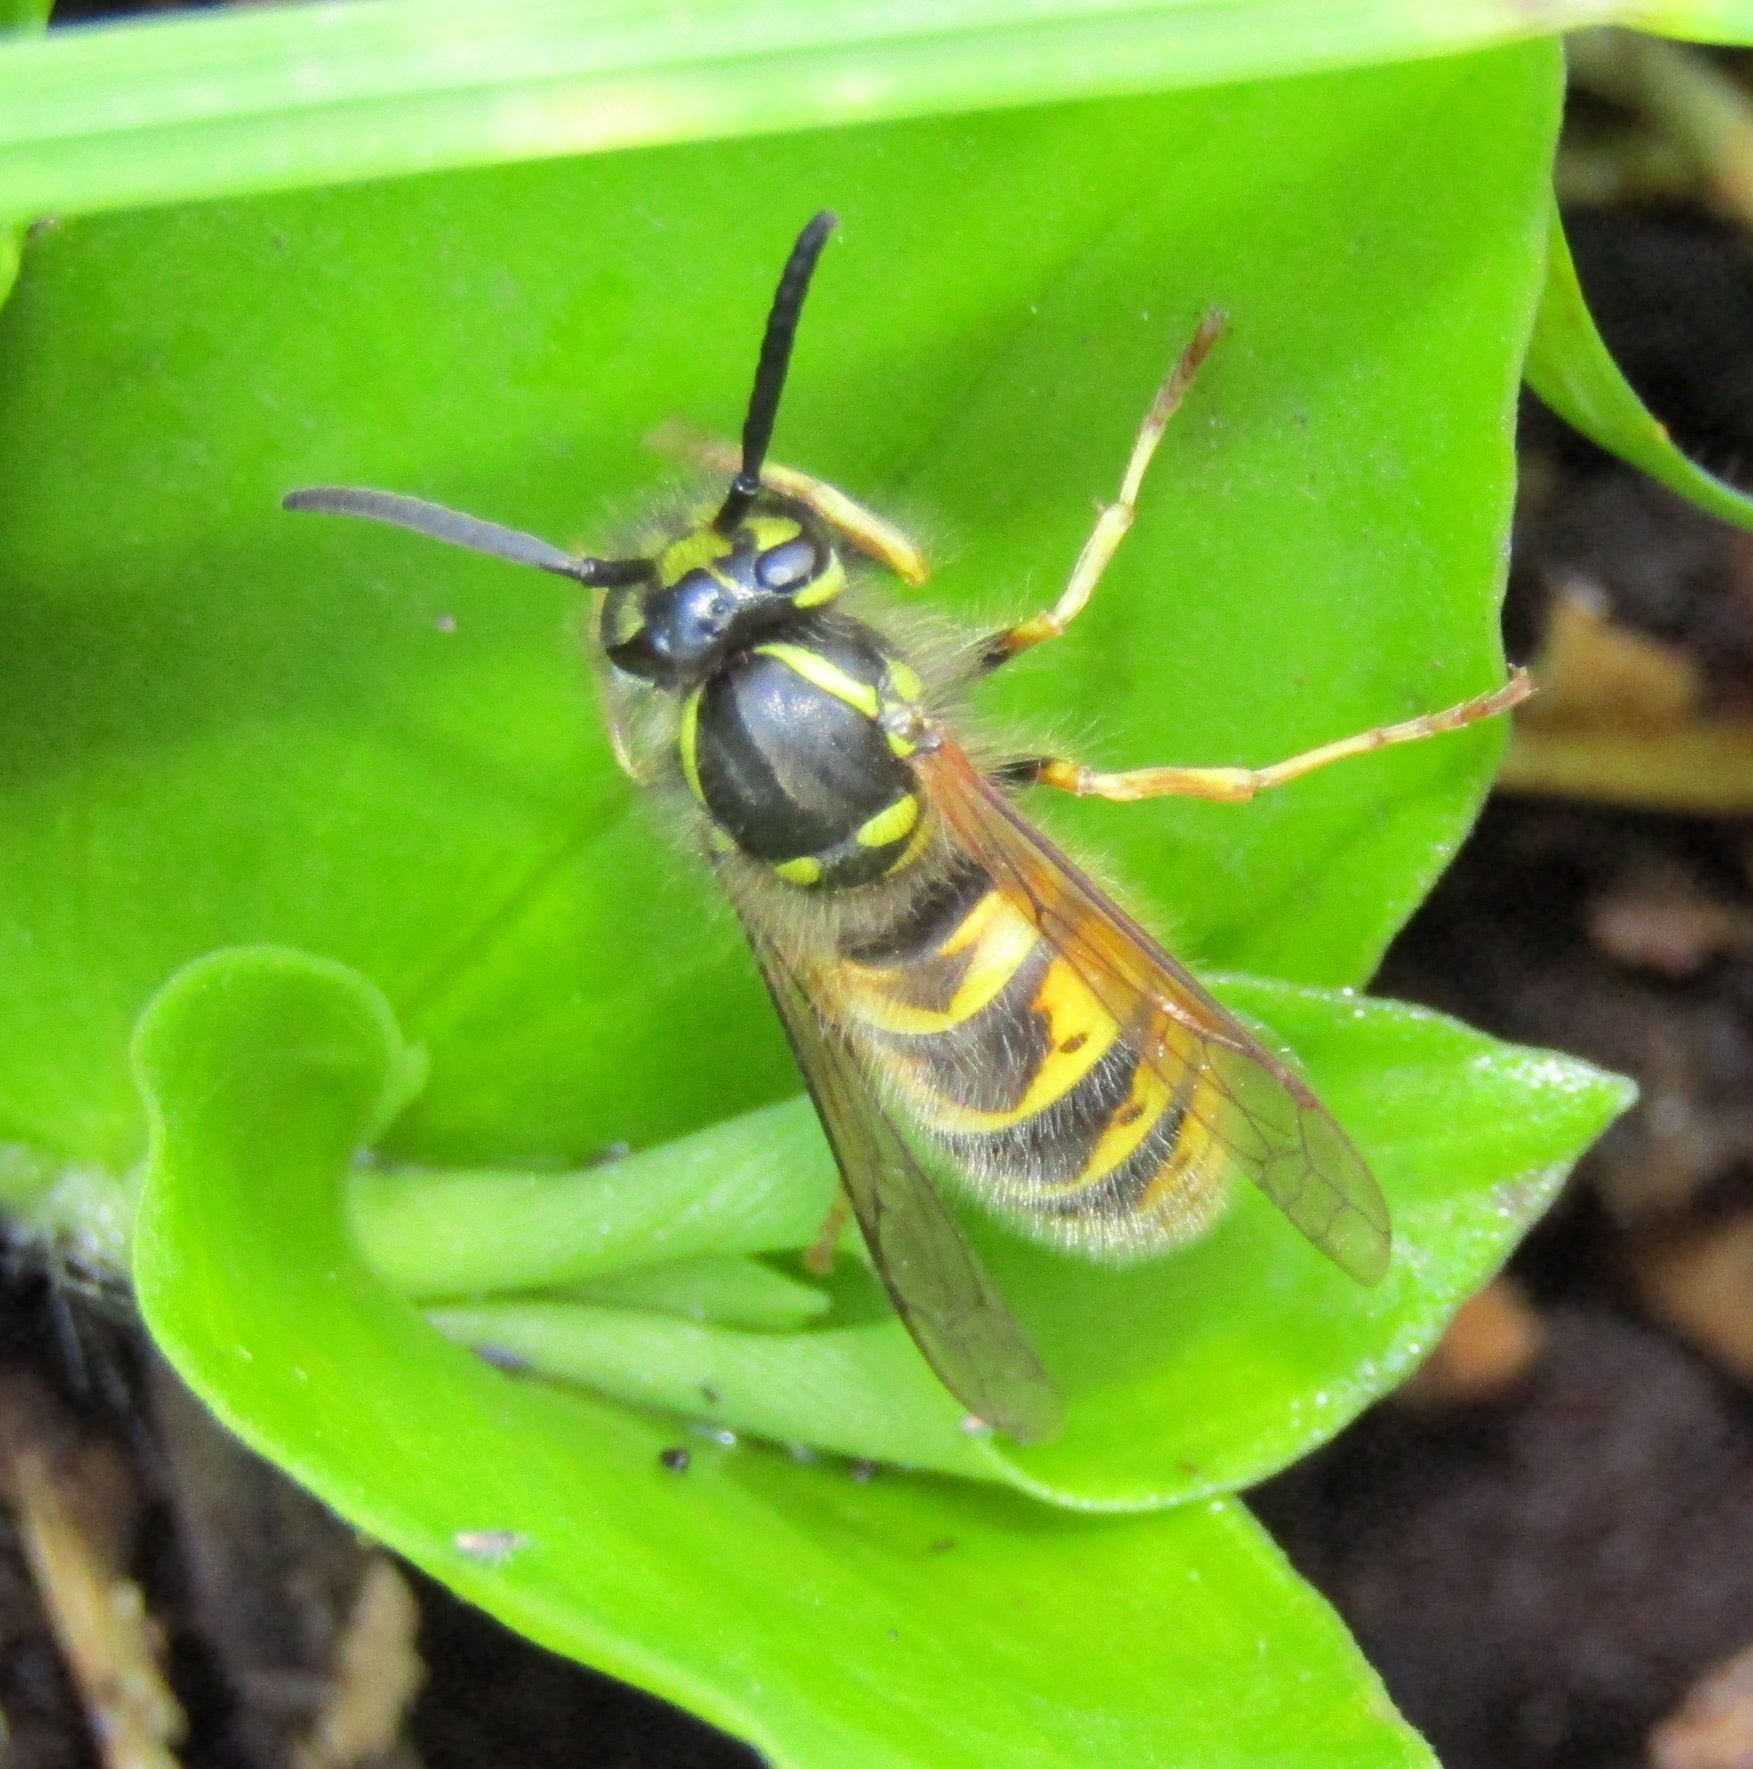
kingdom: Animalia
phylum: Arthropoda
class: Insecta
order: Hymenoptera
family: Vespidae
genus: Vespula
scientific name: Vespula vulgaris
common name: Common wasp
